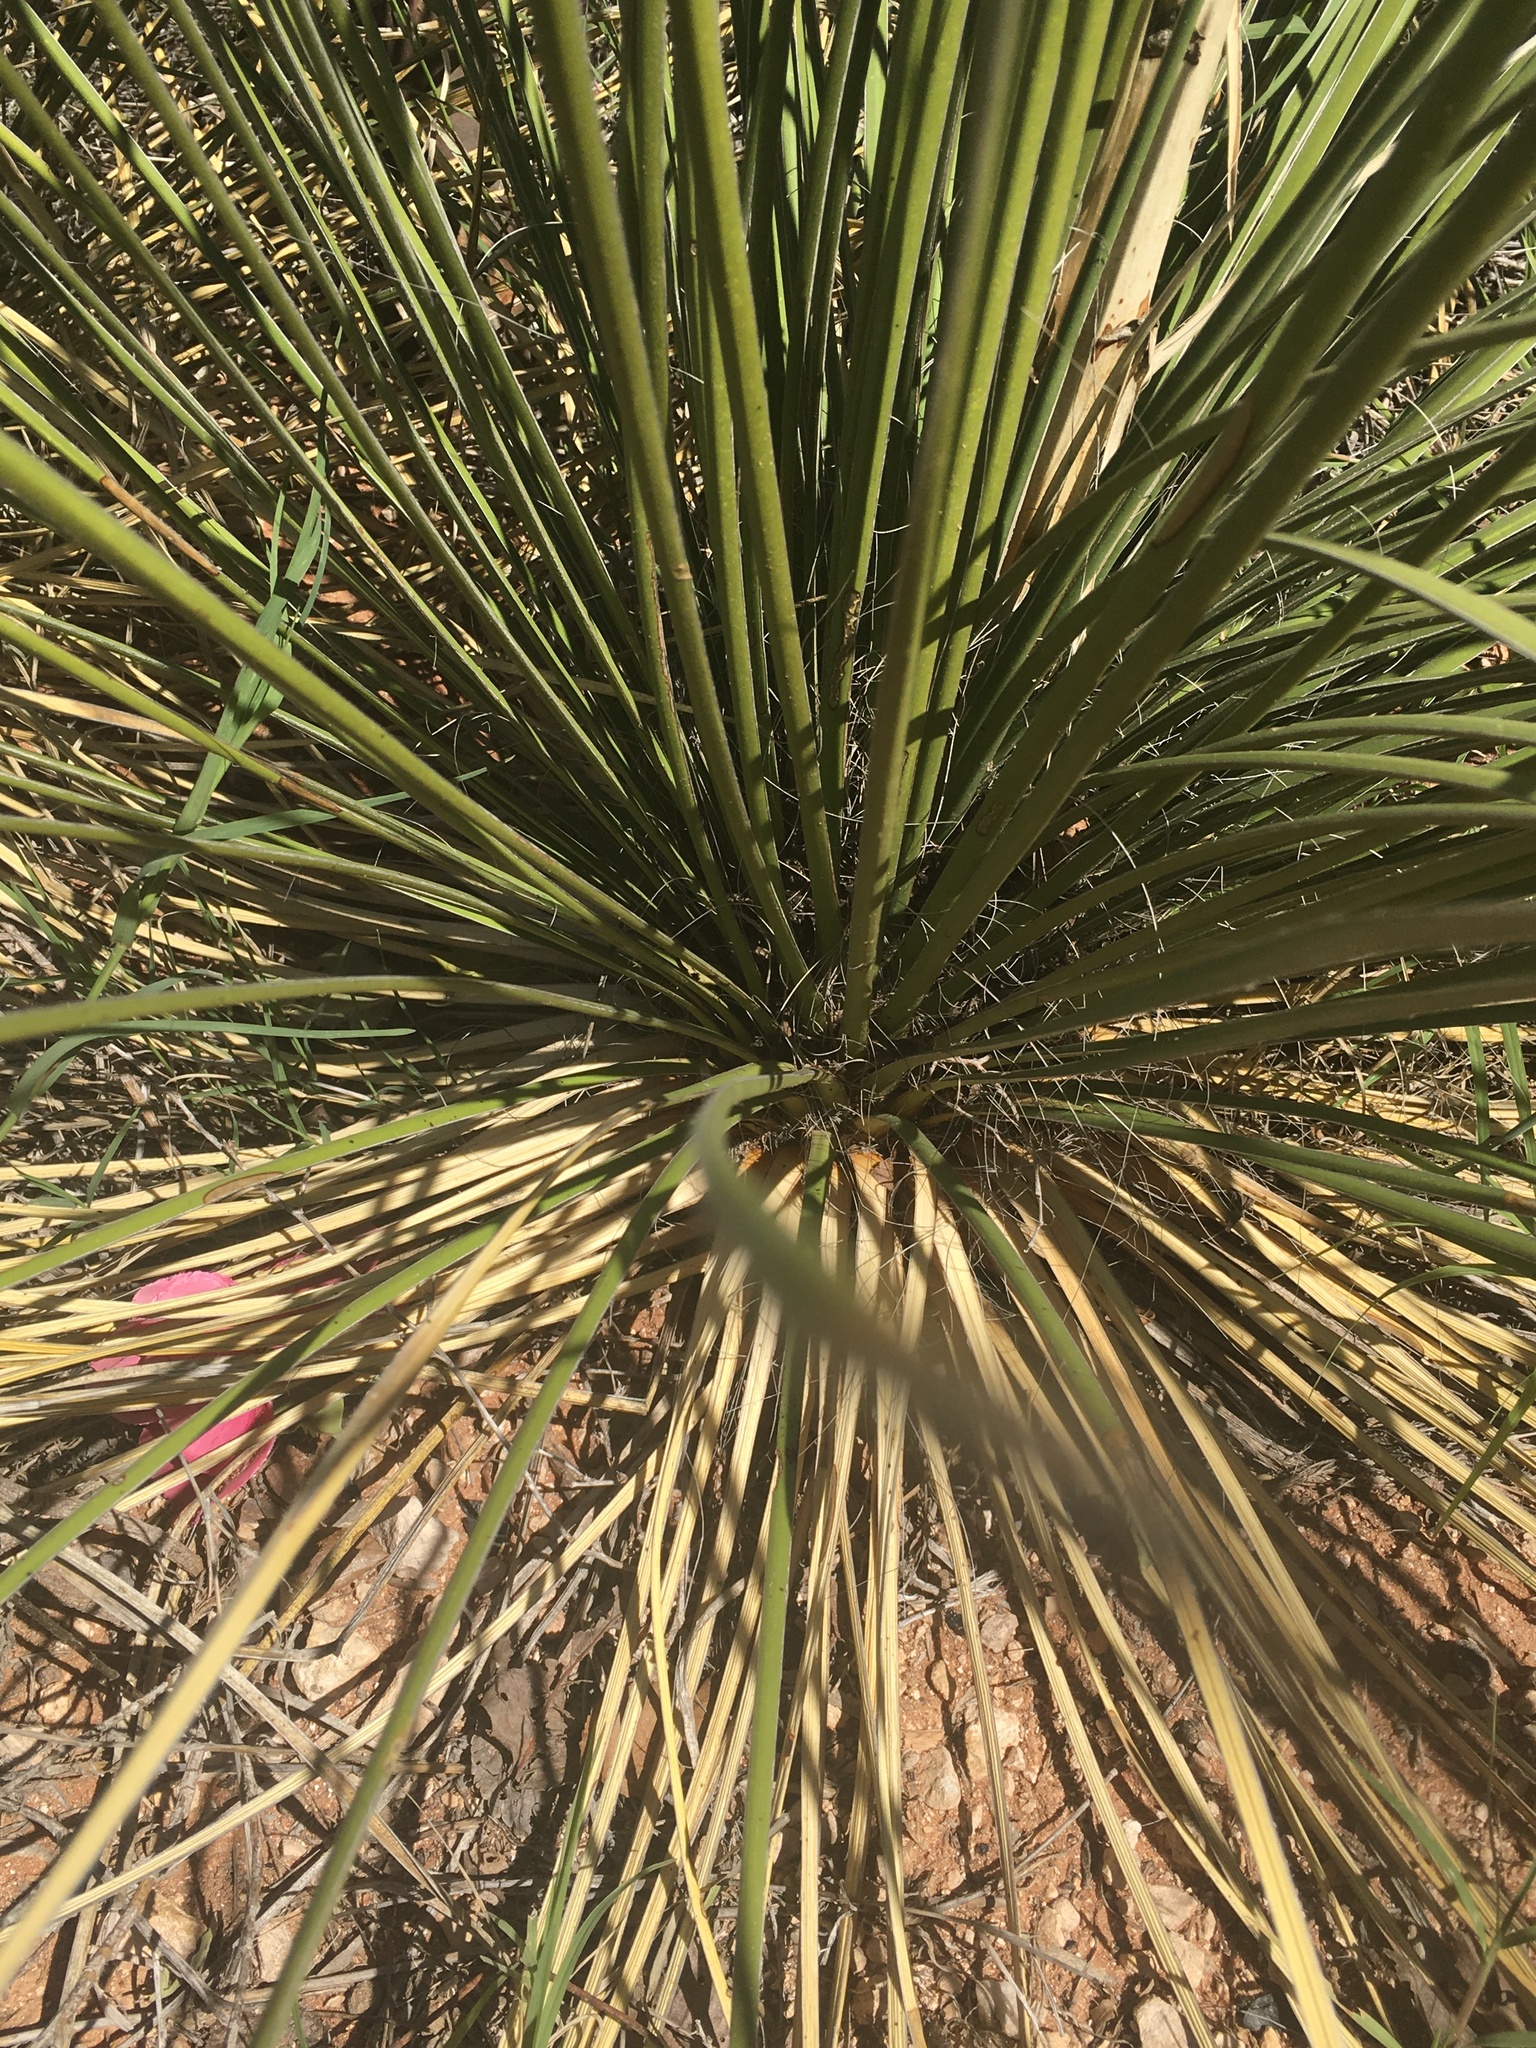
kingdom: Plantae
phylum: Tracheophyta
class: Liliopsida
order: Asparagales
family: Asparagaceae
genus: Yucca
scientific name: Yucca campestris
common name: Plains yucca
